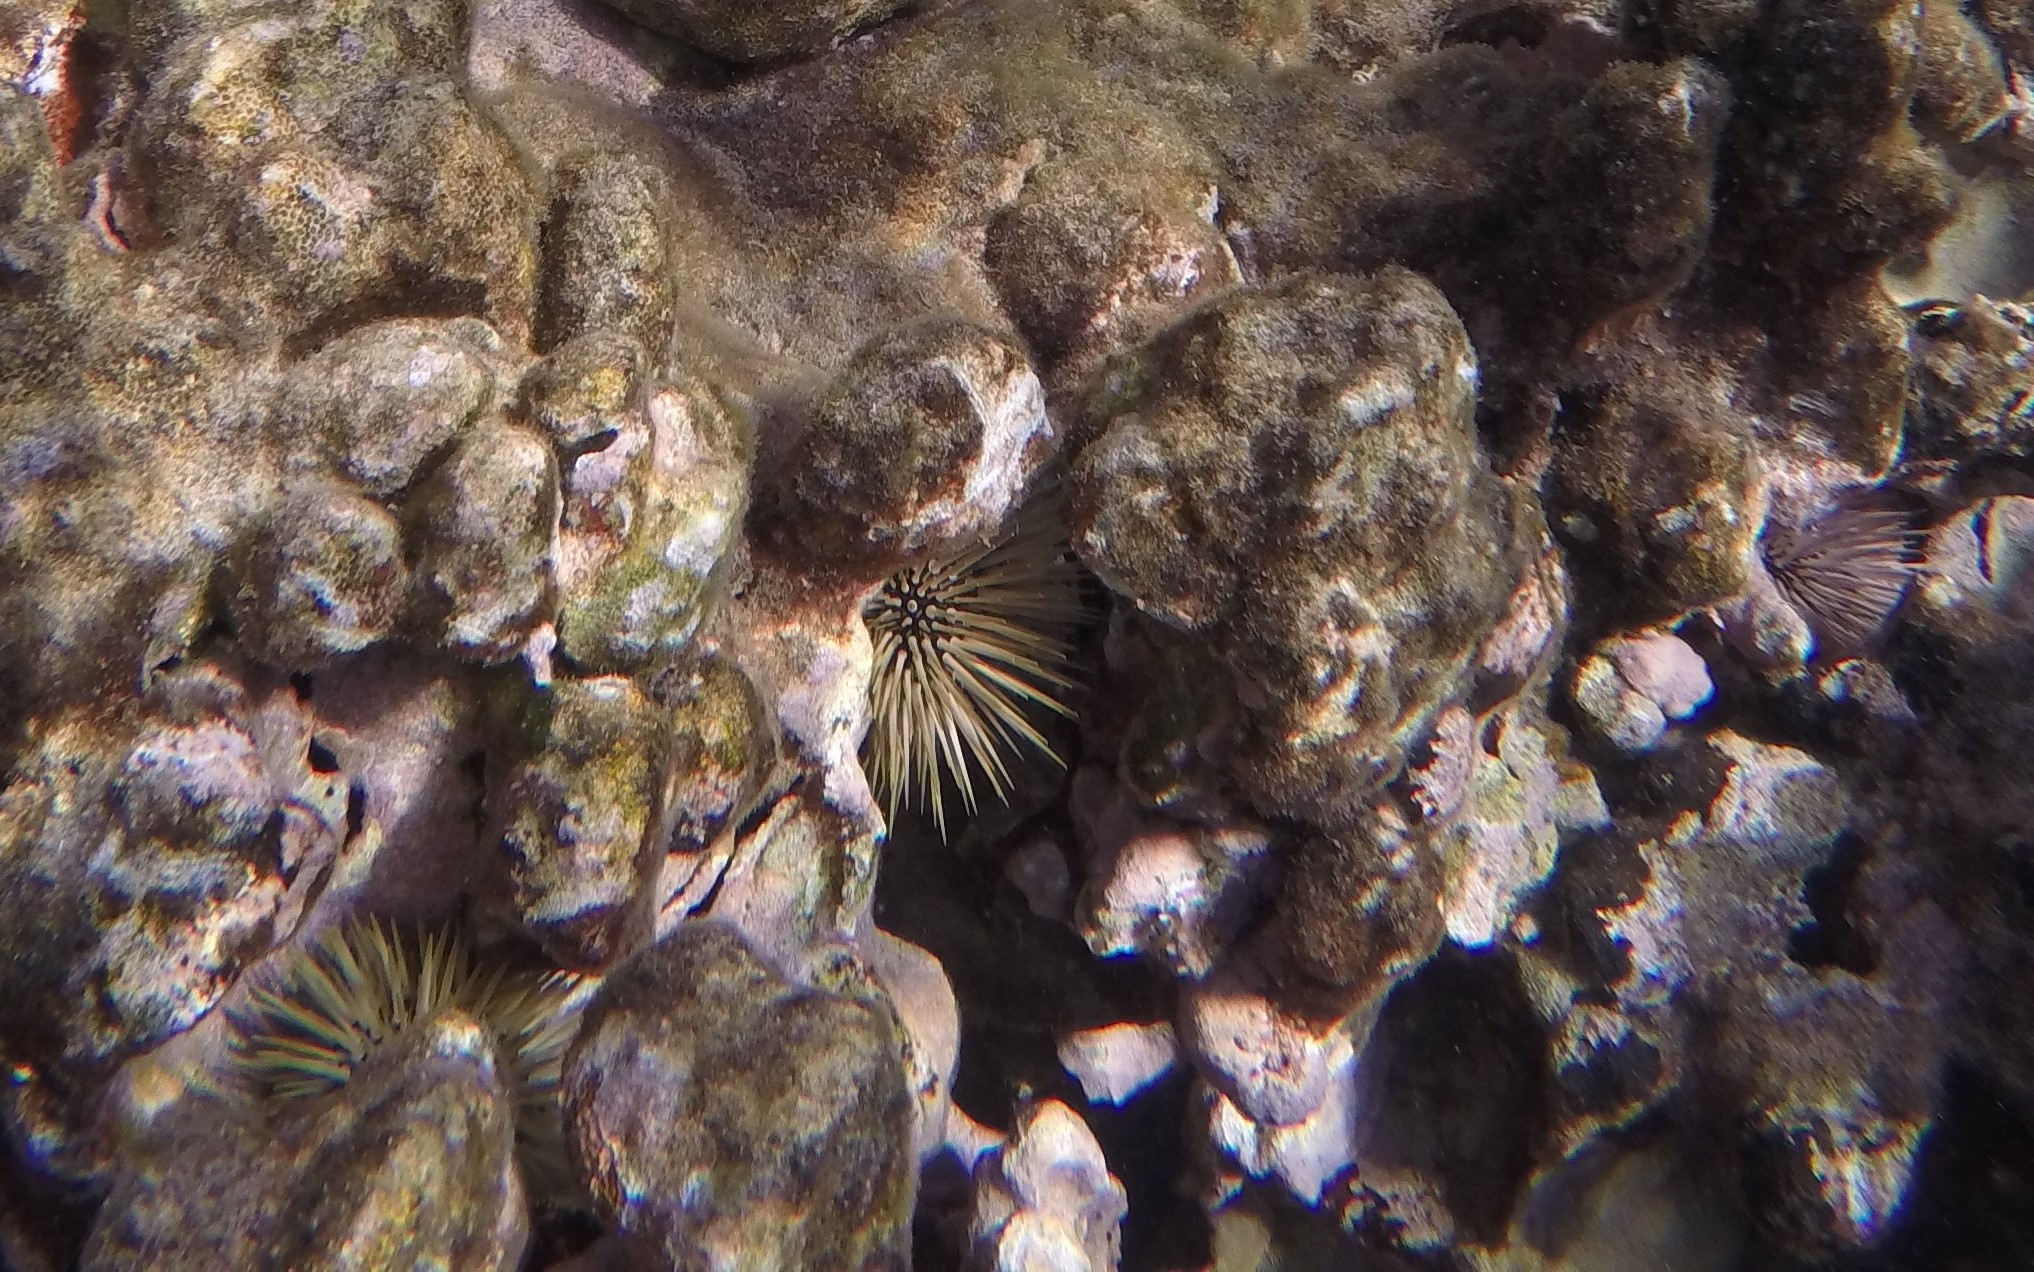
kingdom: Animalia
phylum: Echinodermata
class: Echinoidea
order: Camarodonta
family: Echinometridae
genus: Echinometra
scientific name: Echinometra mathaei
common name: Rock-boring urchin
